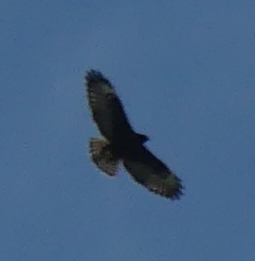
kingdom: Animalia
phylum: Chordata
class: Aves
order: Accipitriformes
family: Accipitridae
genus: Buteo
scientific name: Buteo brachyurus
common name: Short-tailed hawk
